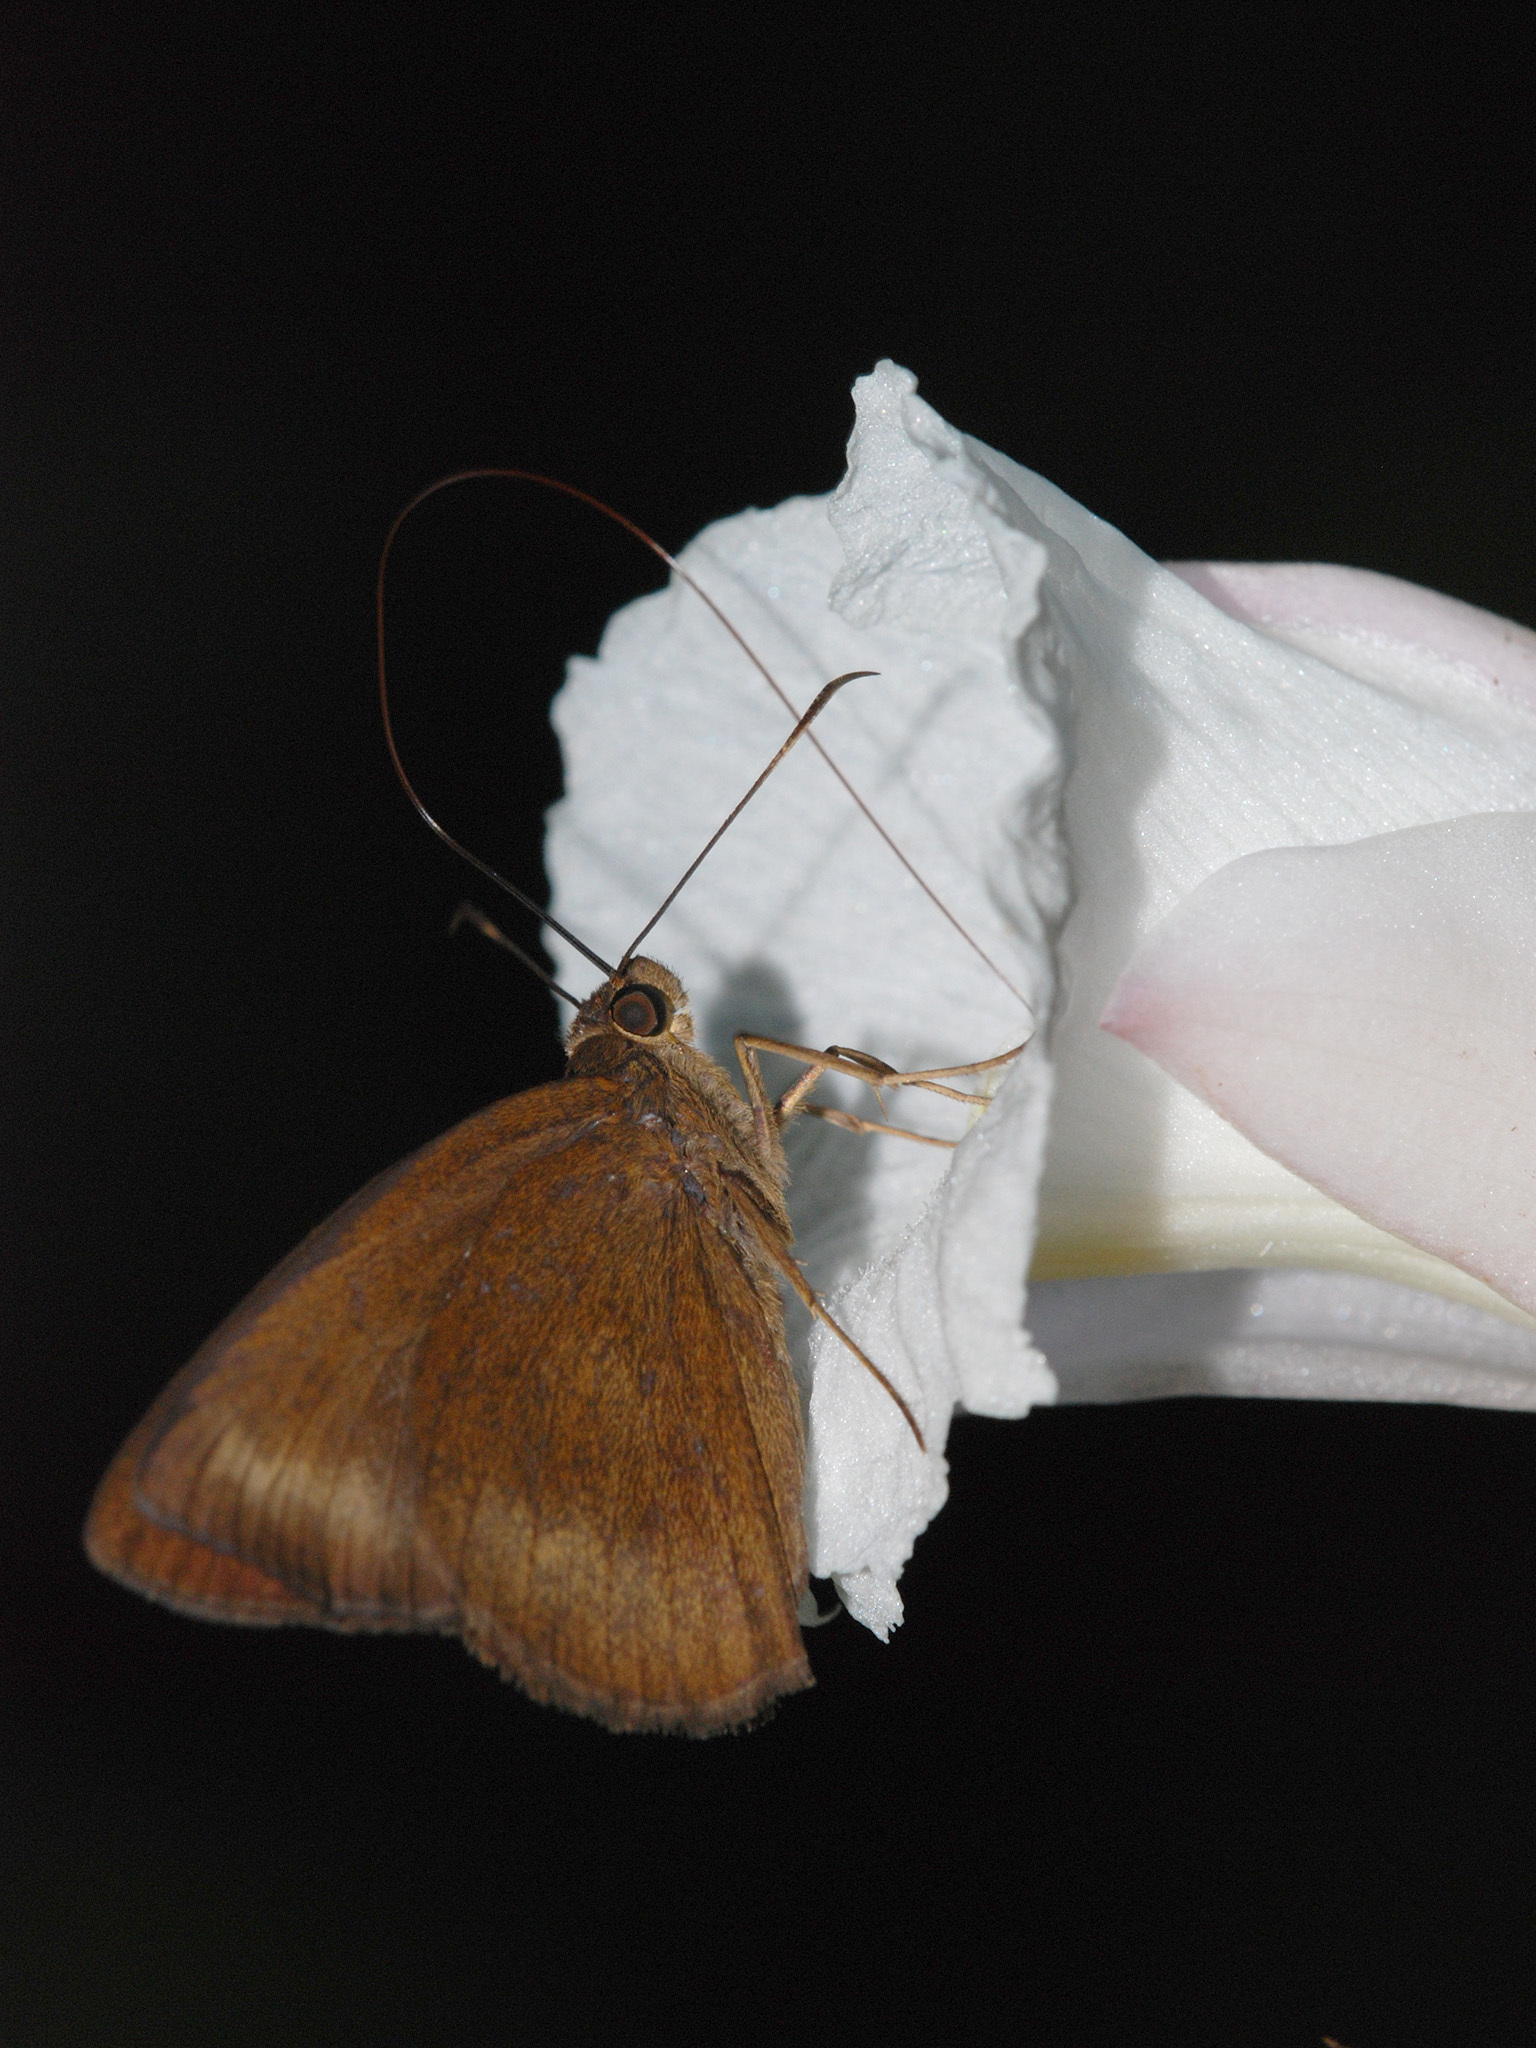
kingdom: Animalia
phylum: Arthropoda
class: Insecta
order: Lepidoptera
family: Hesperiidae
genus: Ancistroides
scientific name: Ancistroides nigrita
